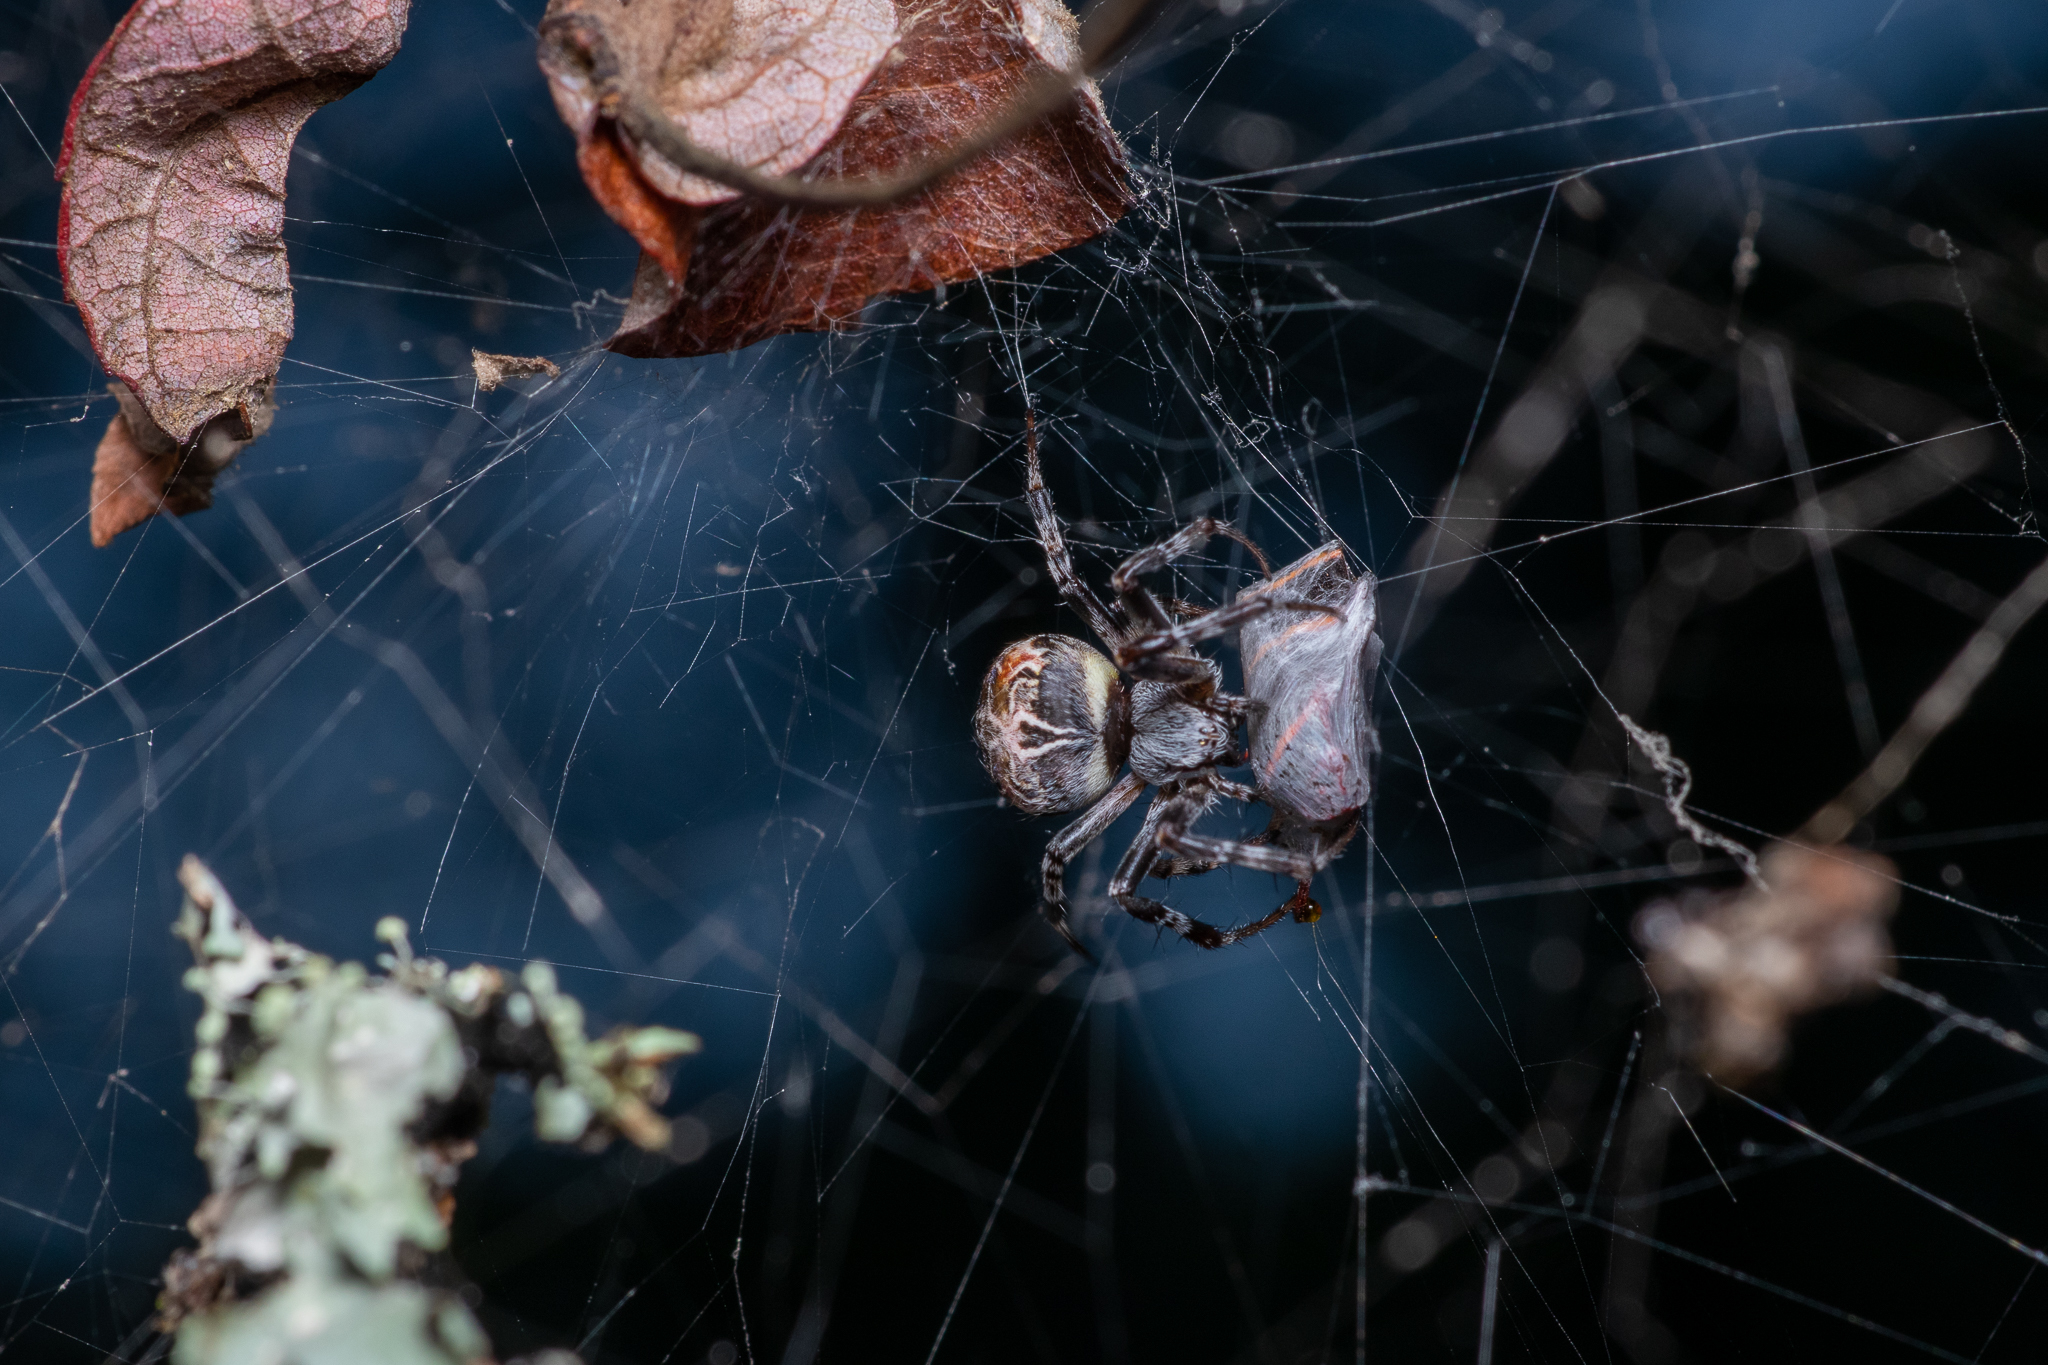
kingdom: Animalia
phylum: Arthropoda
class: Arachnida
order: Araneae
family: Araneidae
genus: Metepeira
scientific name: Metepeira labyrinthea
